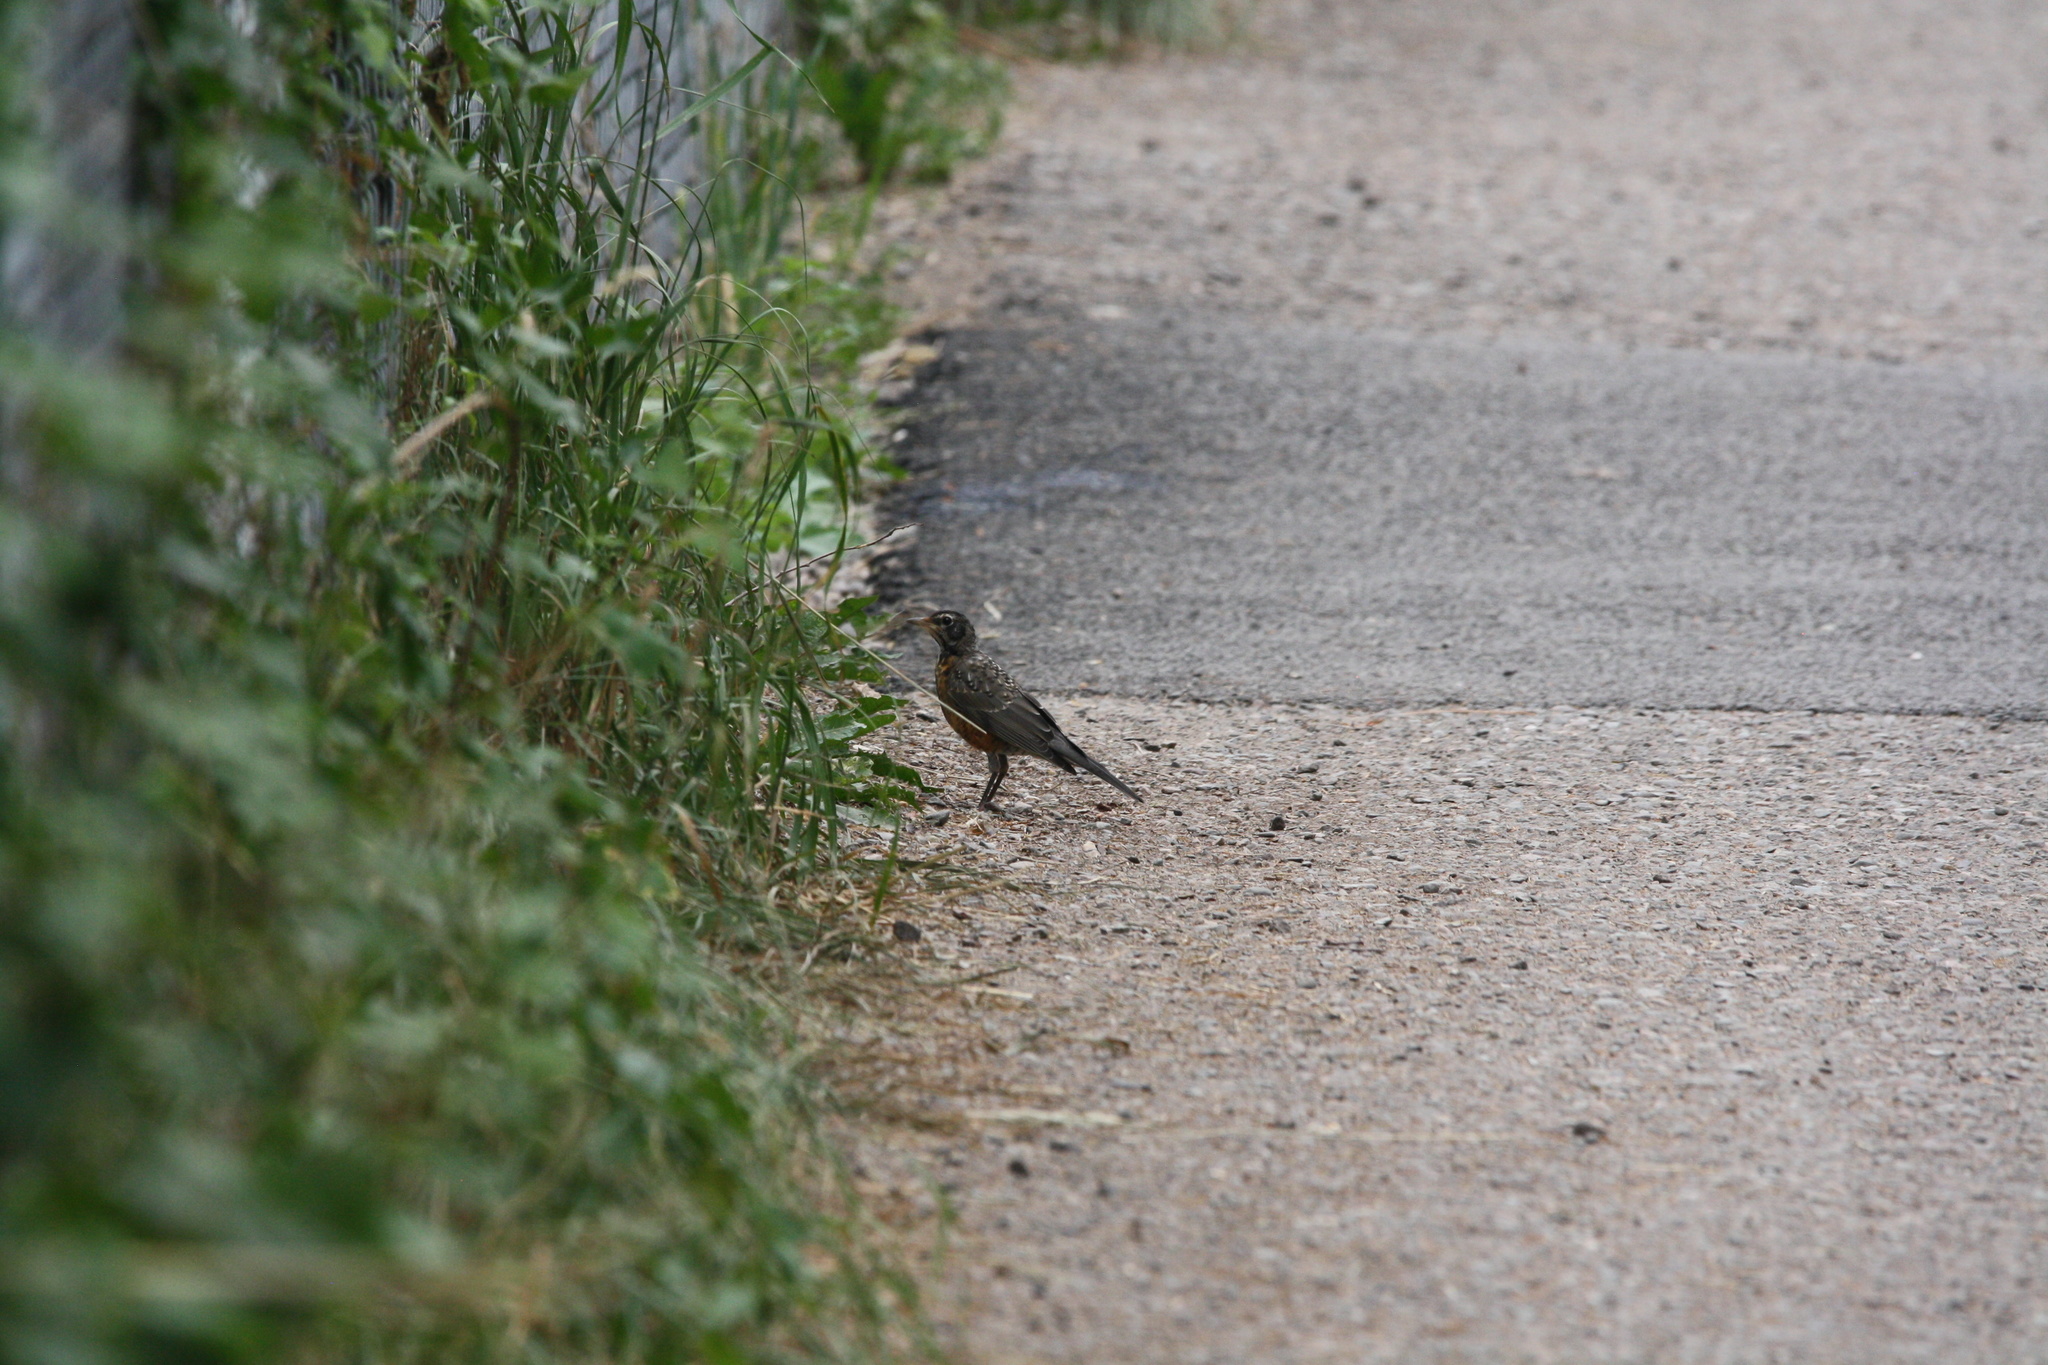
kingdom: Animalia
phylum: Chordata
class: Aves
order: Passeriformes
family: Turdidae
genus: Turdus
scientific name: Turdus migratorius
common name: American robin
